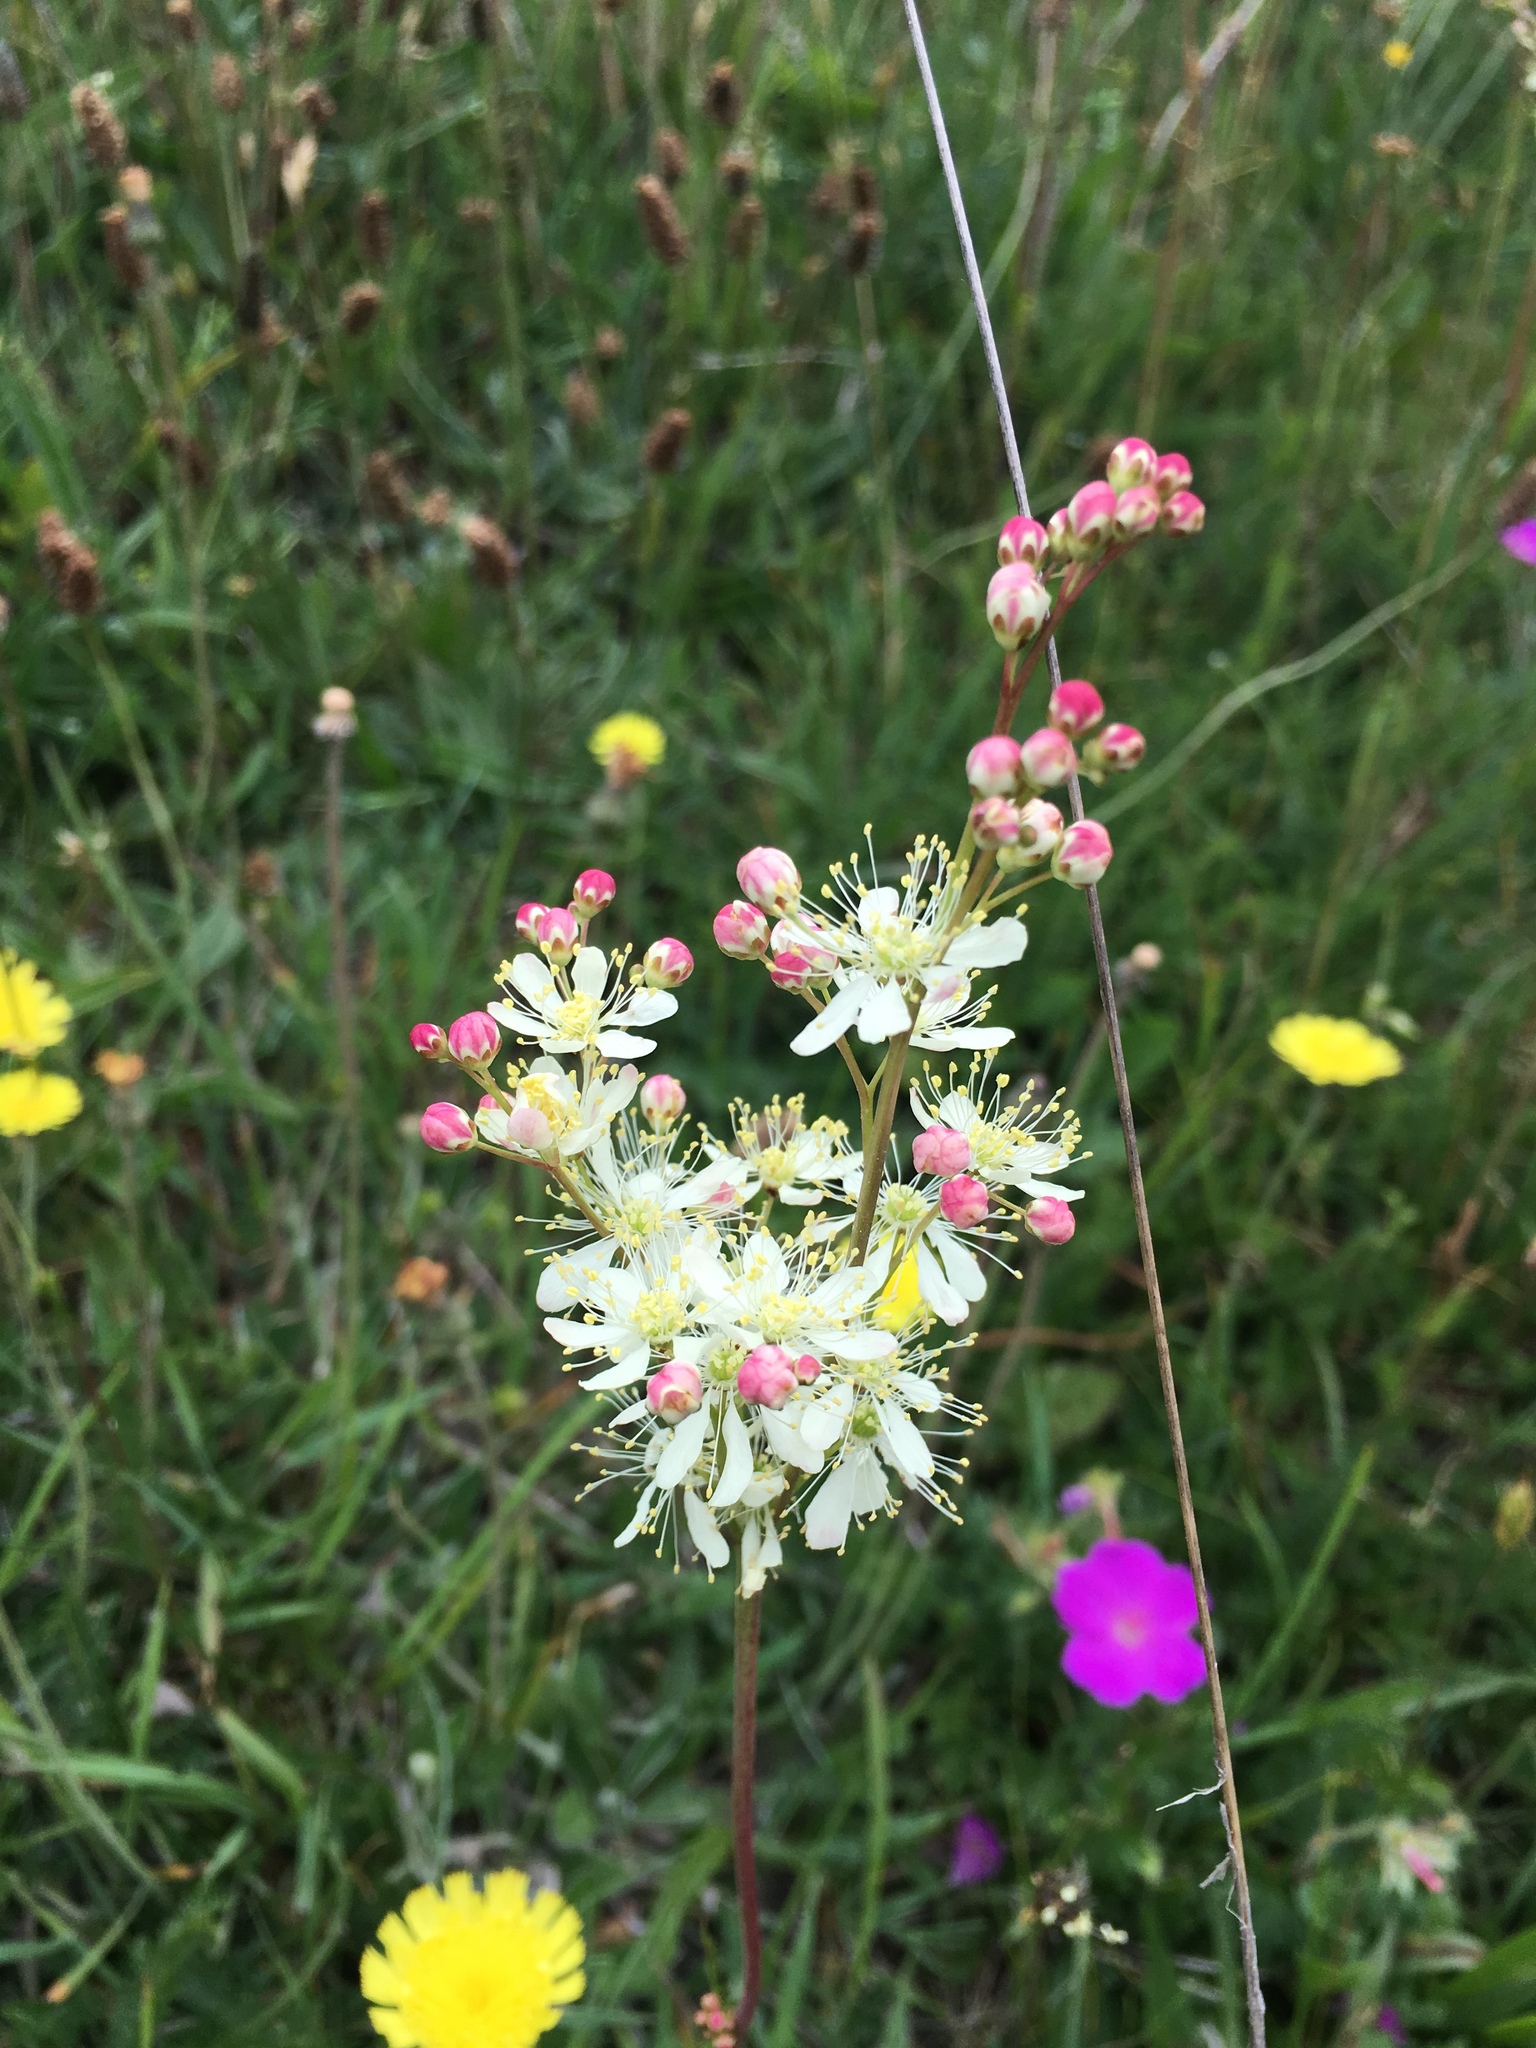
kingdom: Plantae
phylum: Tracheophyta
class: Magnoliopsida
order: Rosales
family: Rosaceae
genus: Filipendula
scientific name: Filipendula vulgaris
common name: Dropwort
